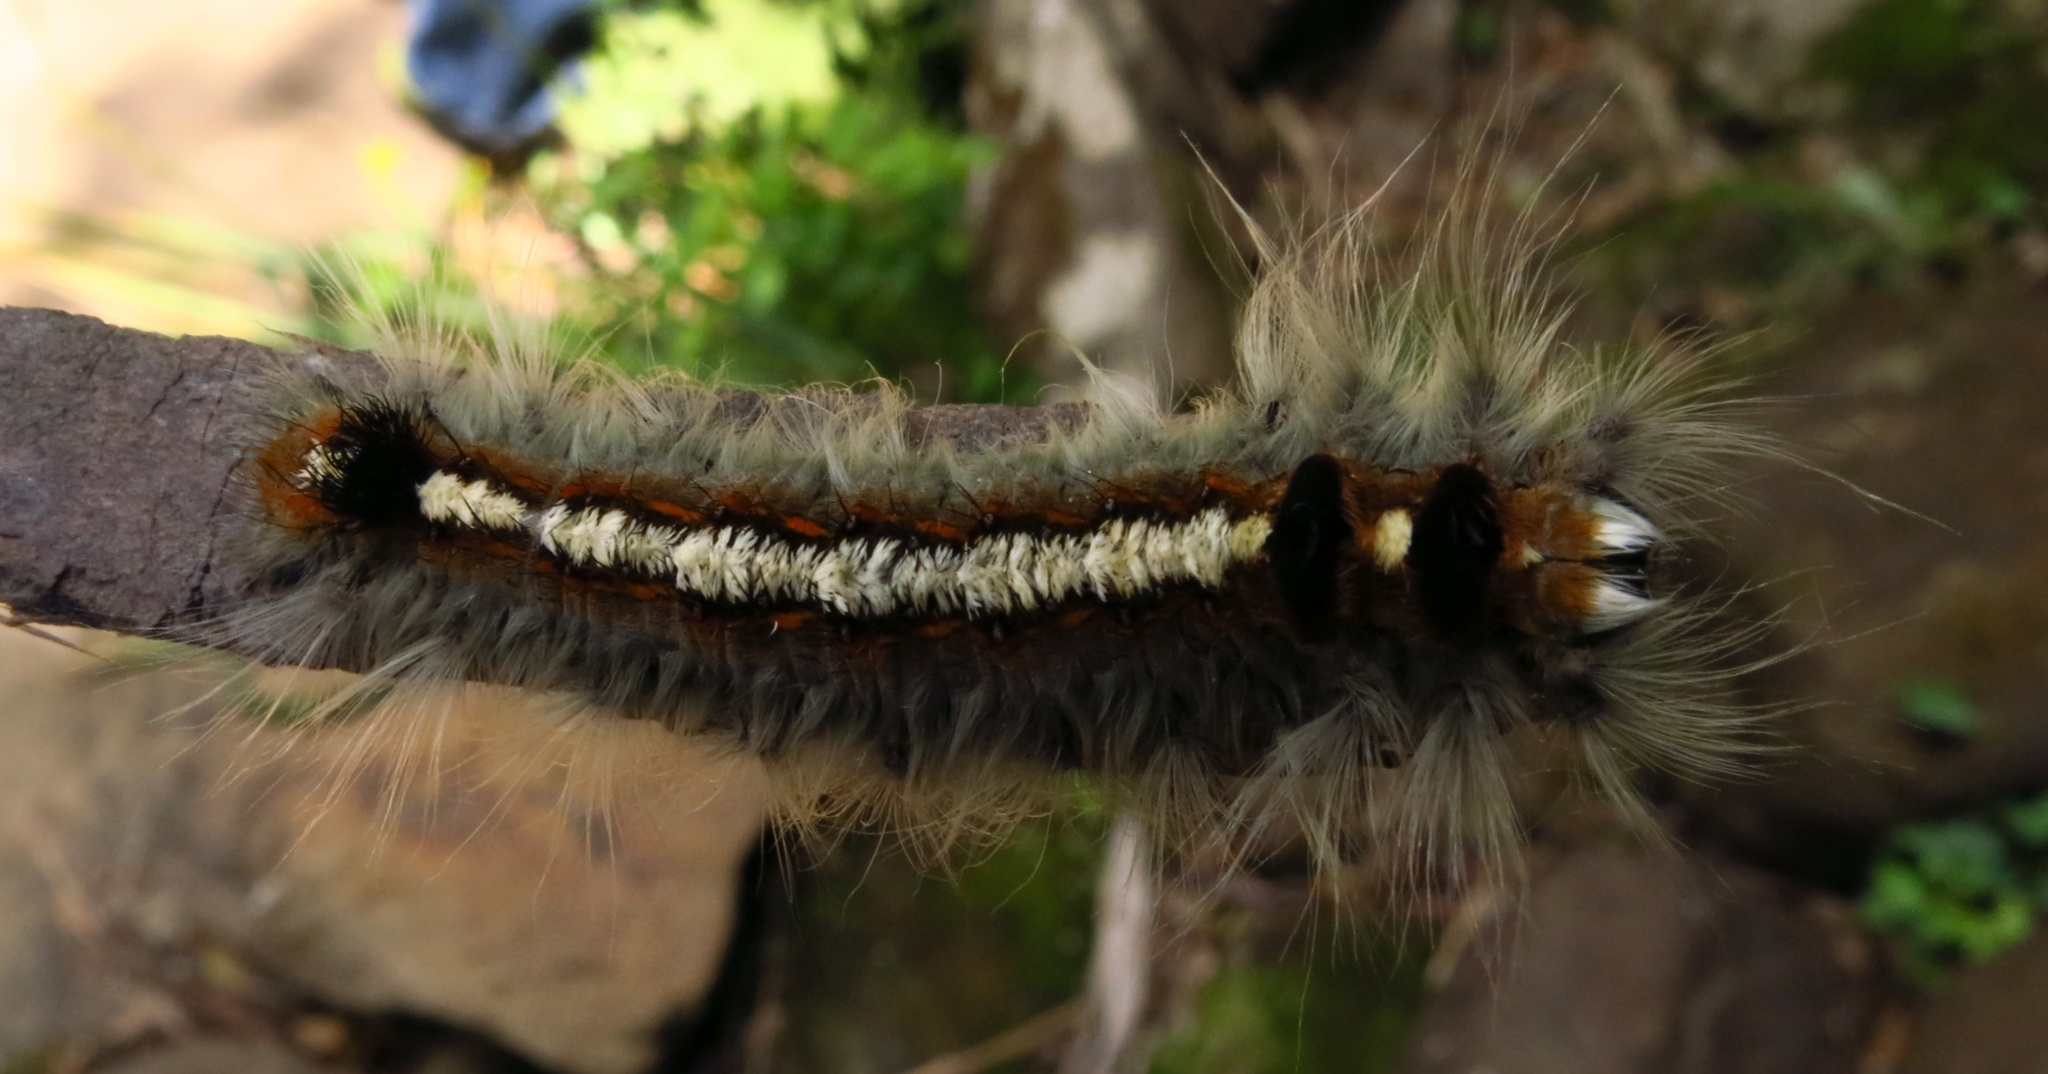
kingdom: Animalia
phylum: Arthropoda
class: Insecta
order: Lepidoptera
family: Lasiocampidae
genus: Eutricha
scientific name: Eutricha obscura
